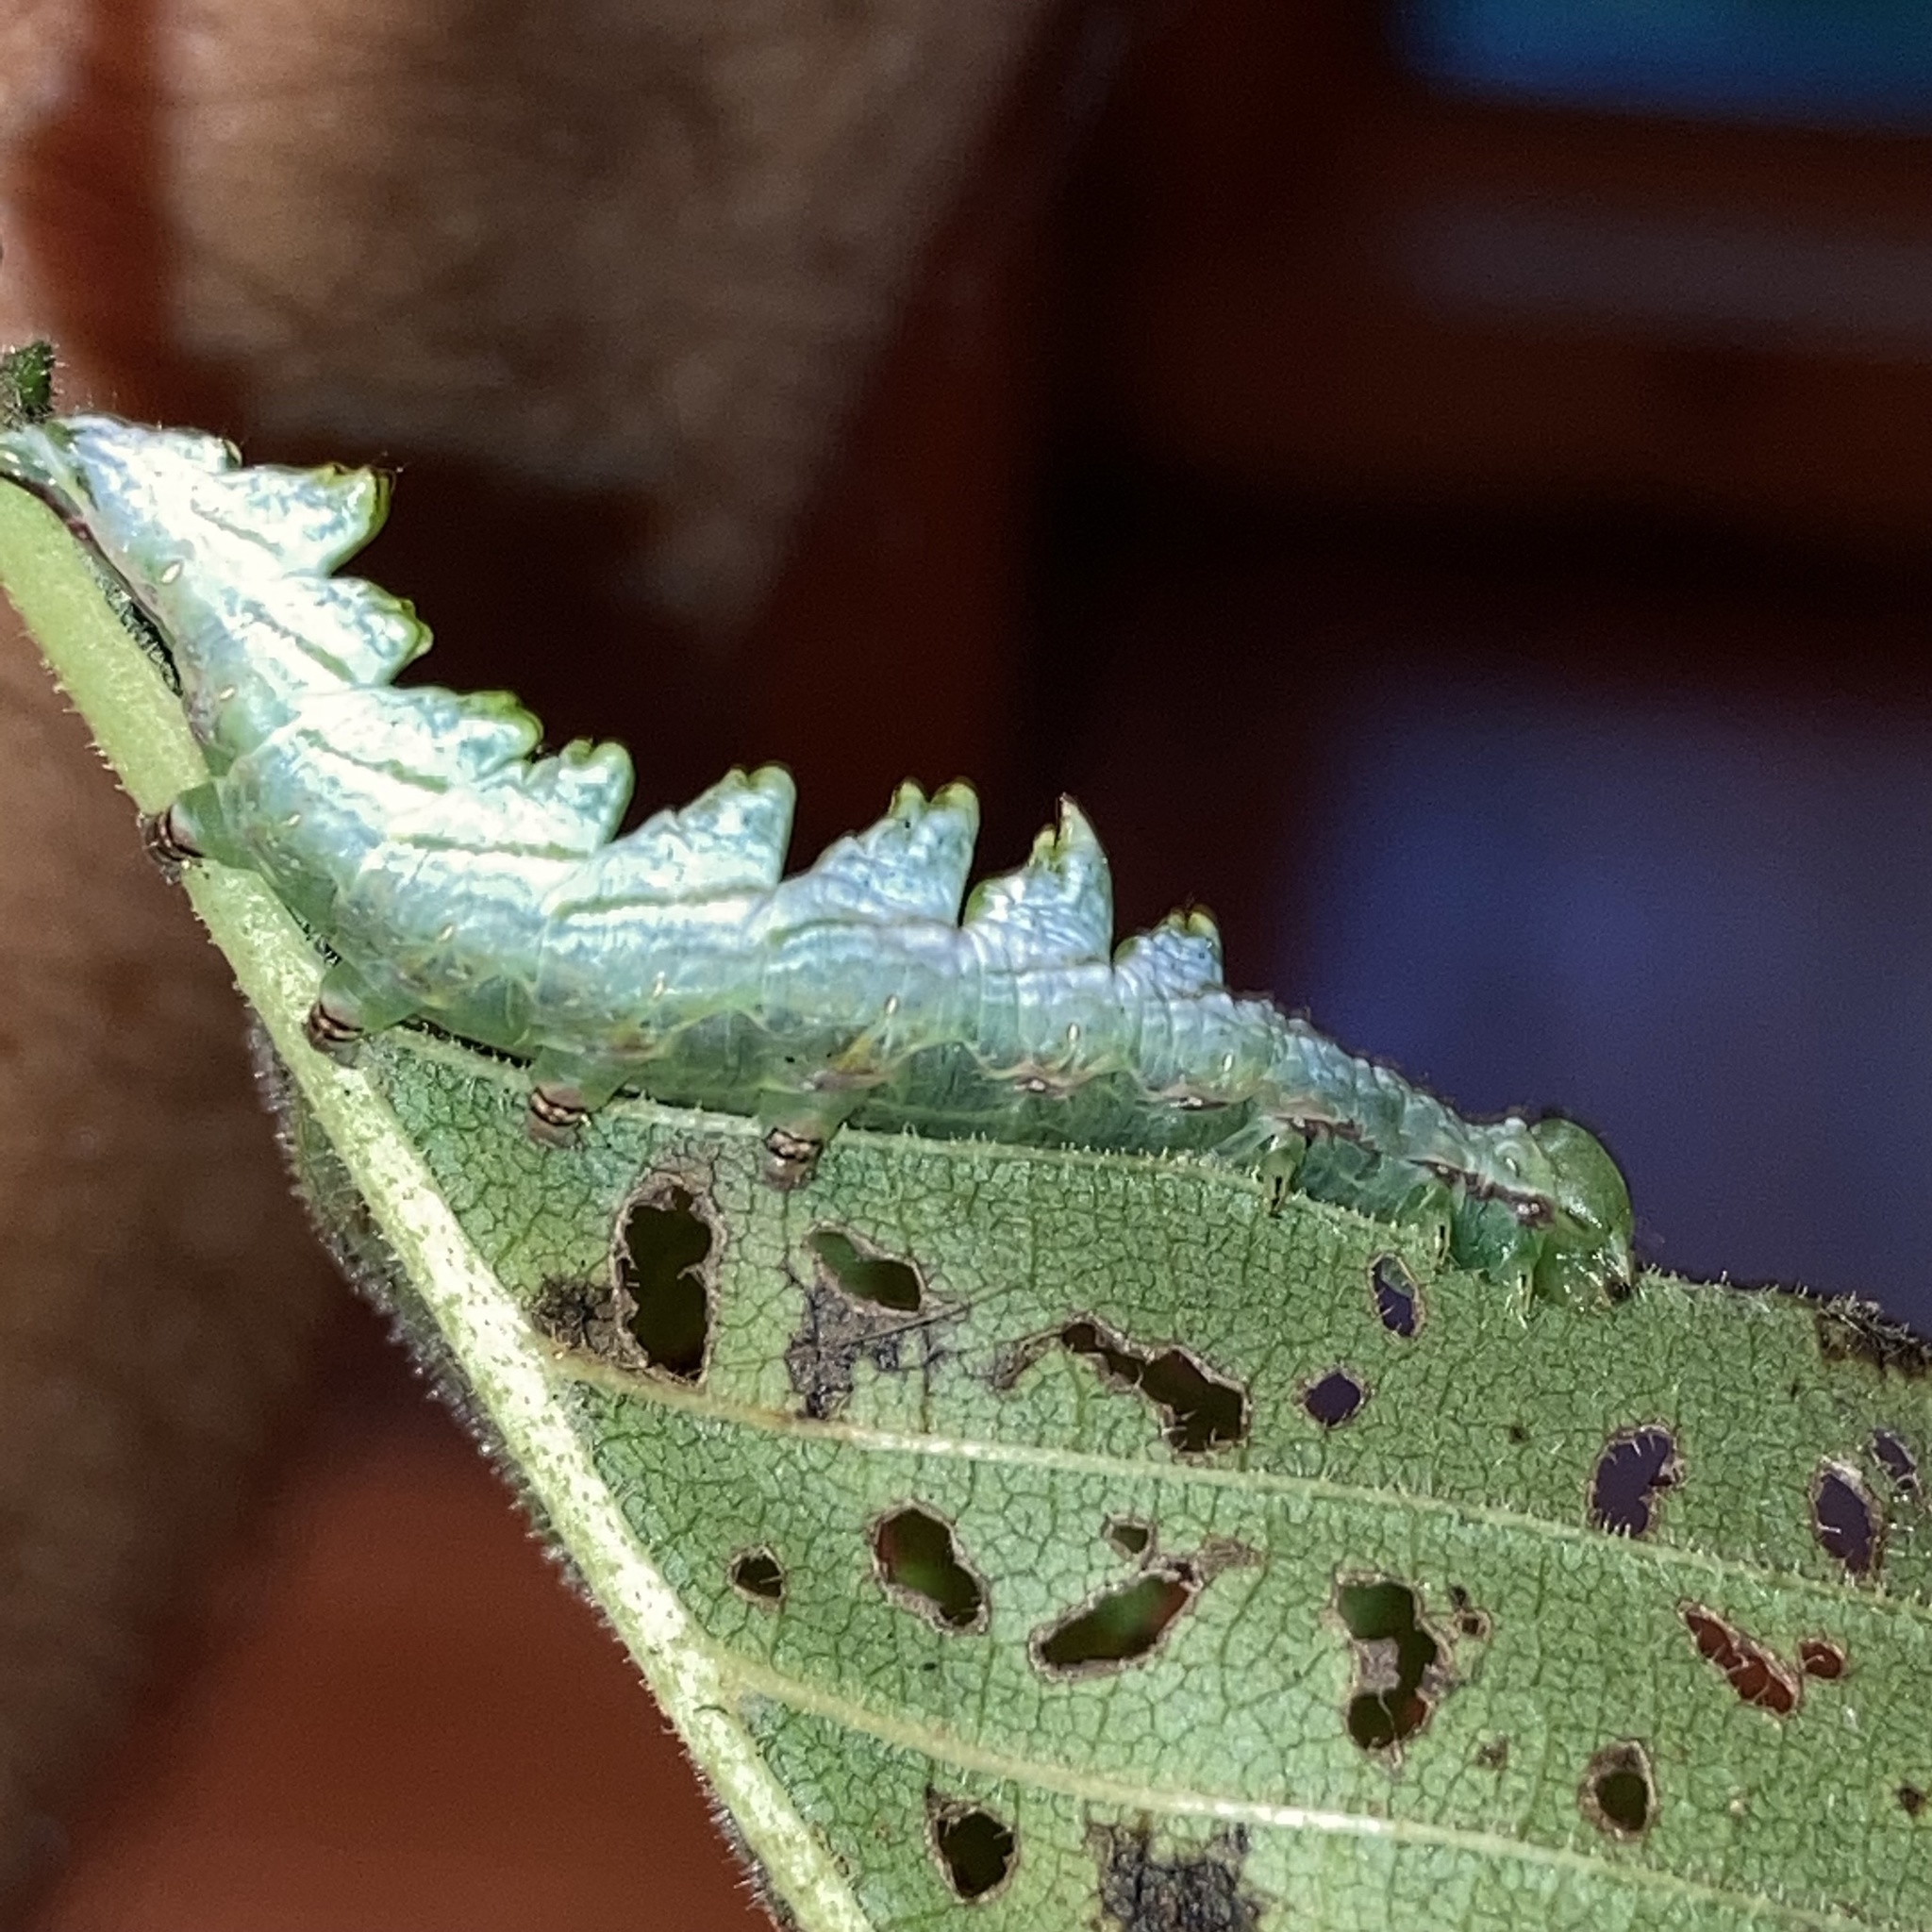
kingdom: Animalia
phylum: Arthropoda
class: Insecta
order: Lepidoptera
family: Notodontidae
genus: Nerice
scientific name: Nerice bidentata
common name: Double-toothed prominent
